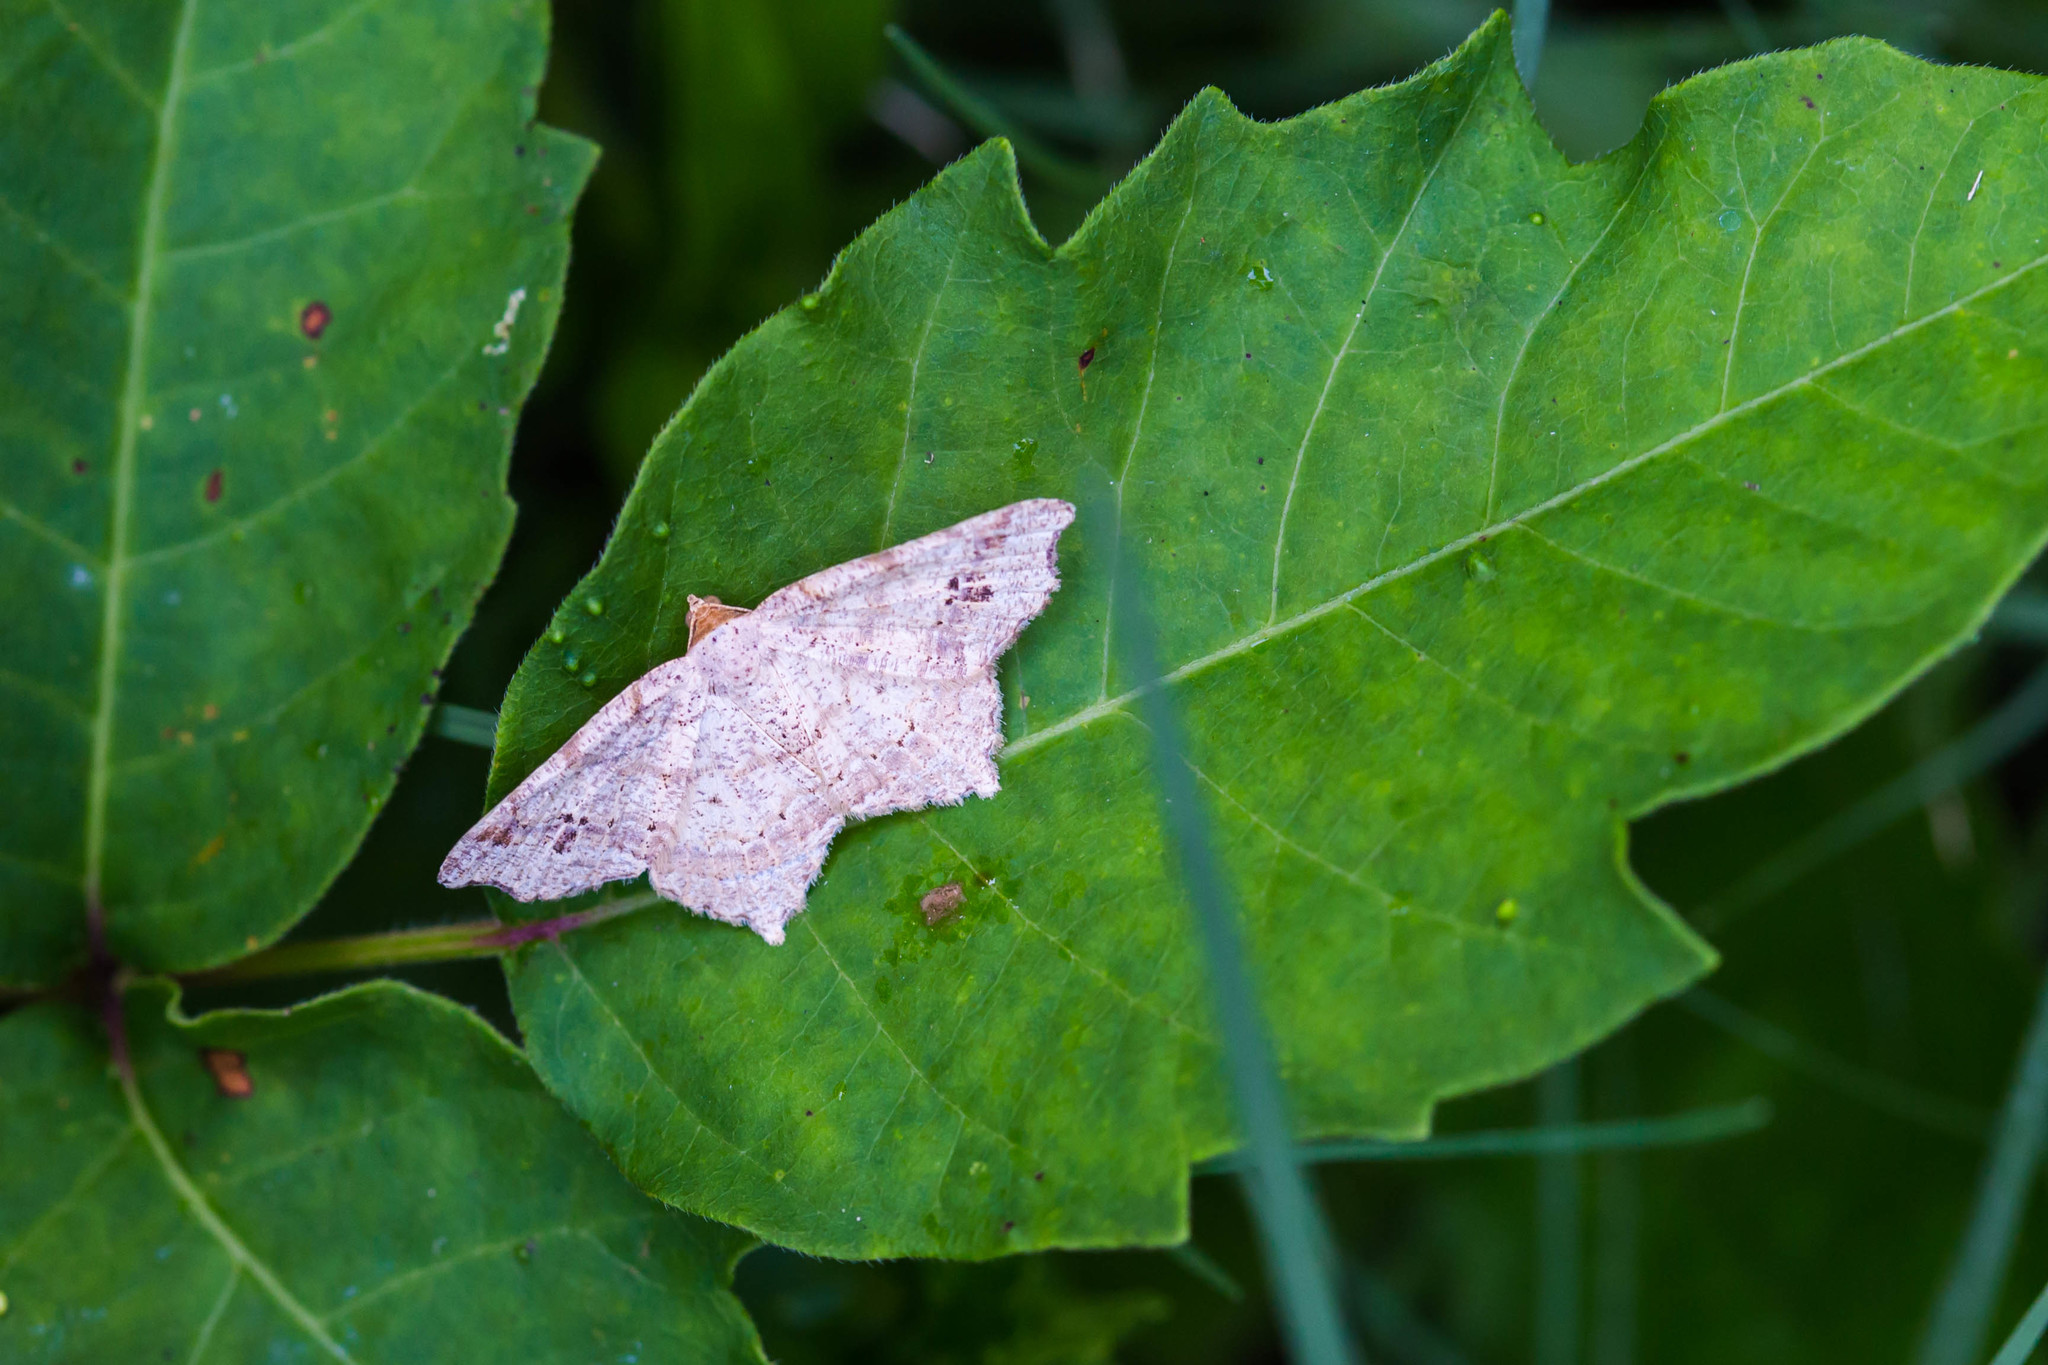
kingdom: Animalia
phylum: Arthropoda
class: Insecta
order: Lepidoptera
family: Geometridae
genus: Macaria
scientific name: Macaria aemulataria
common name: Common angle
